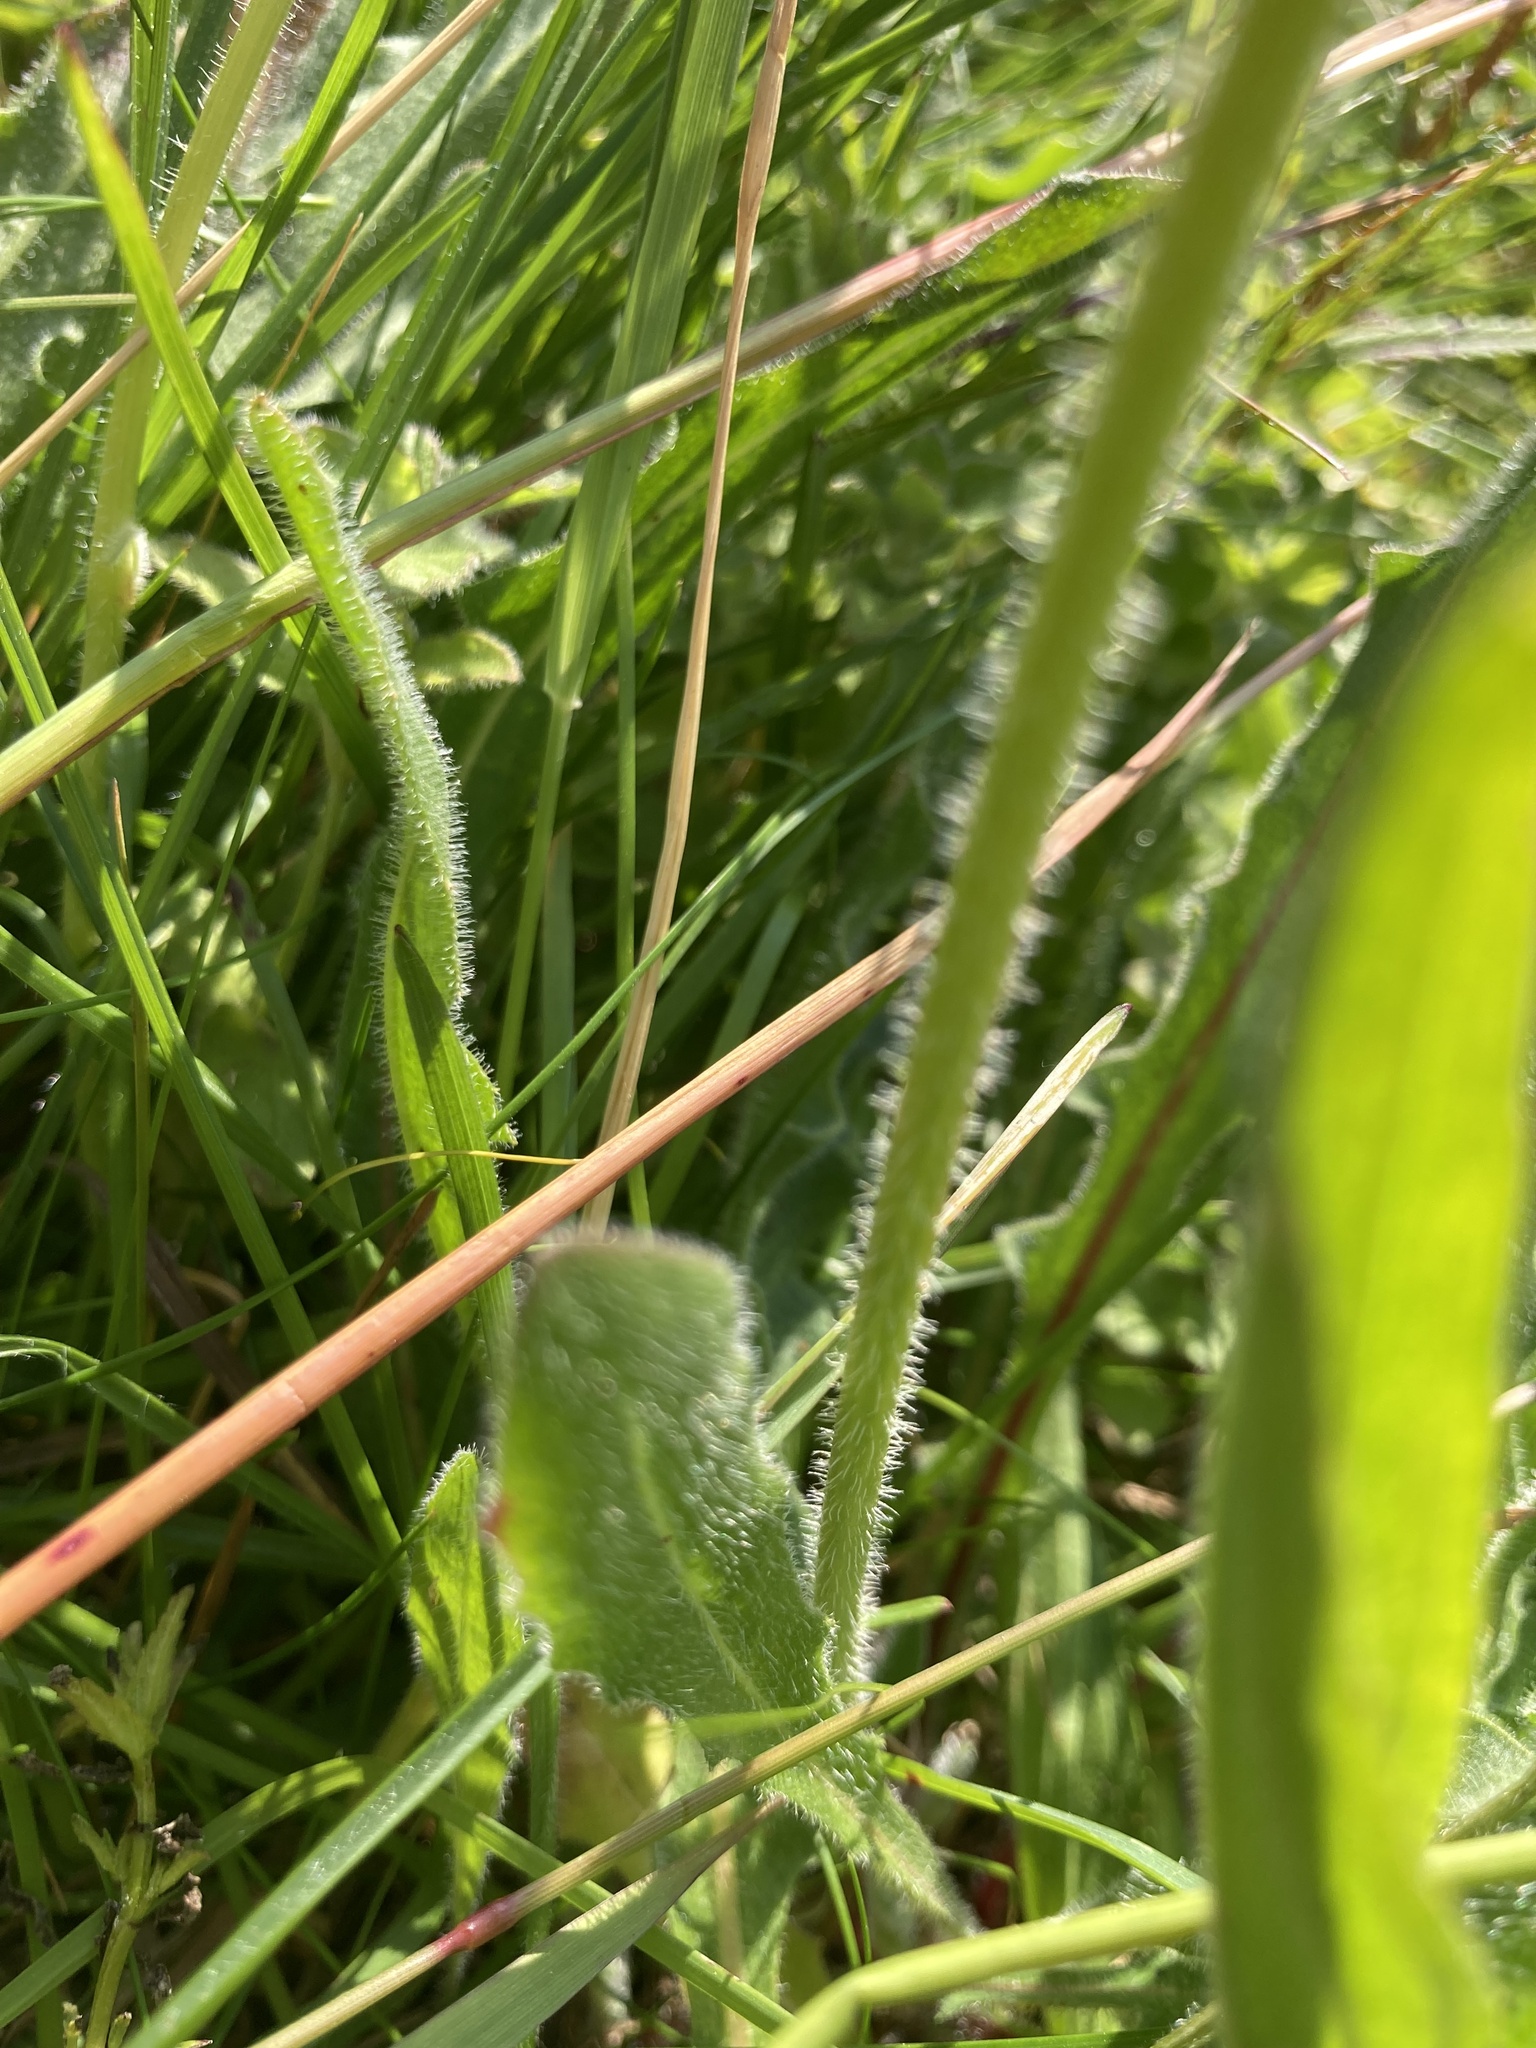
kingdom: Plantae
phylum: Tracheophyta
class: Magnoliopsida
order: Asterales
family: Asteraceae
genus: Leontodon
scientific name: Leontodon hispidus
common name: Rough hawkbit
